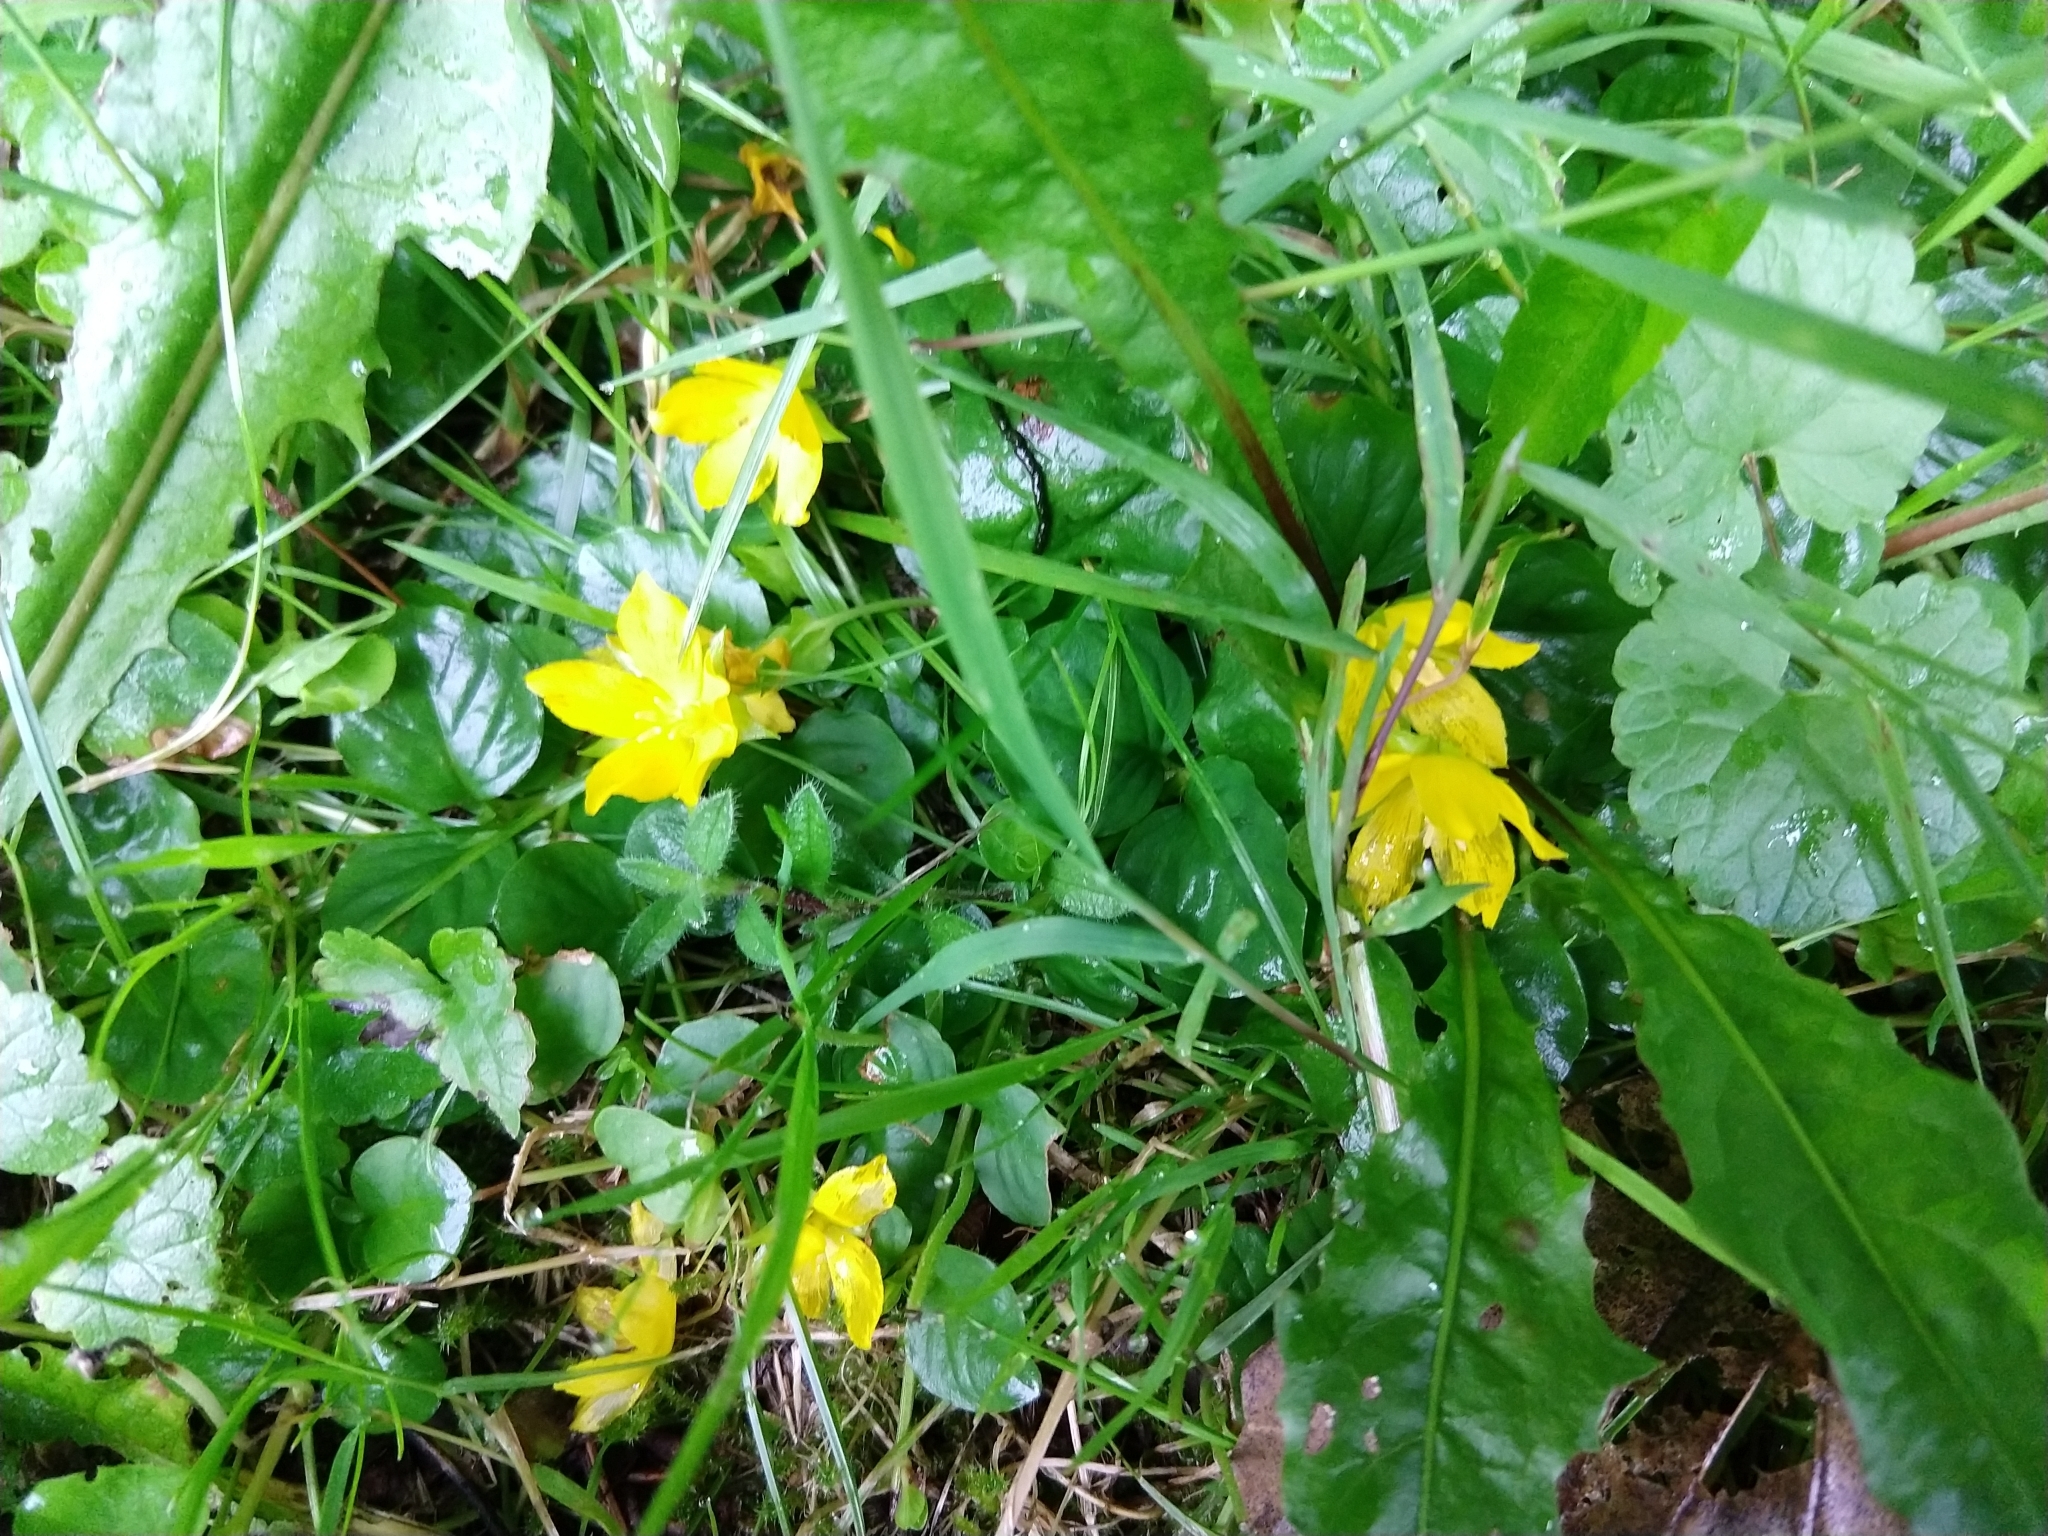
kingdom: Plantae
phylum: Tracheophyta
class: Magnoliopsida
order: Ericales
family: Primulaceae
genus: Lysimachia
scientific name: Lysimachia nummularia
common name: Moneywort
